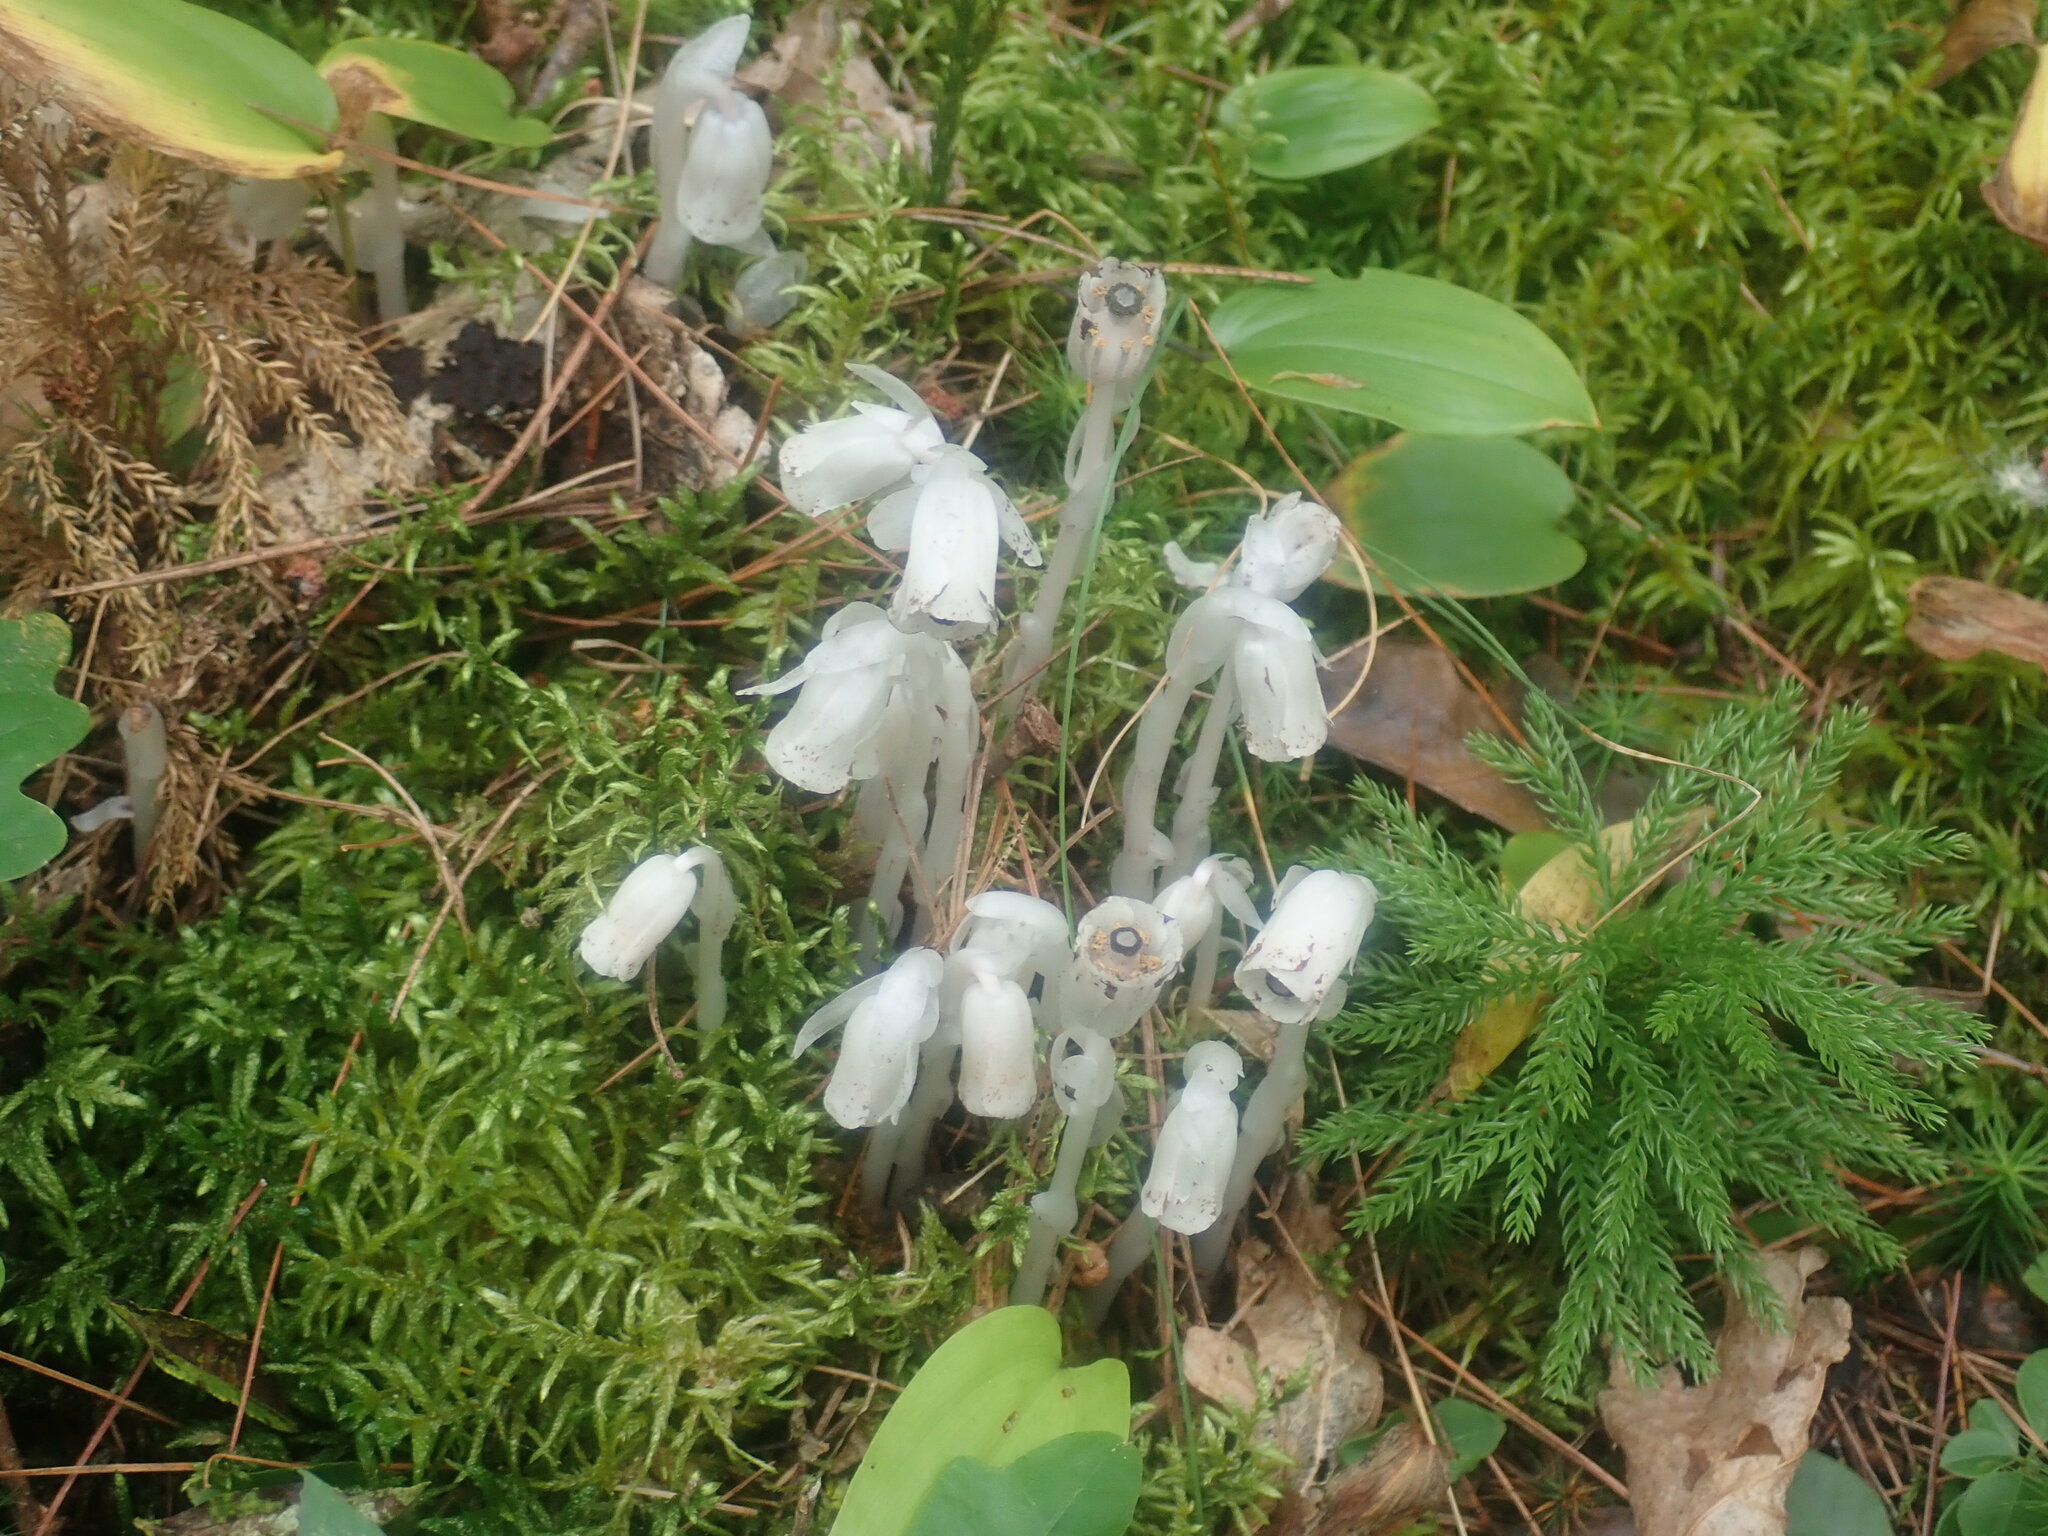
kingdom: Plantae
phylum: Tracheophyta
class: Magnoliopsida
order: Ericales
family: Ericaceae
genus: Monotropa
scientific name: Monotropa uniflora
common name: Convulsion root
